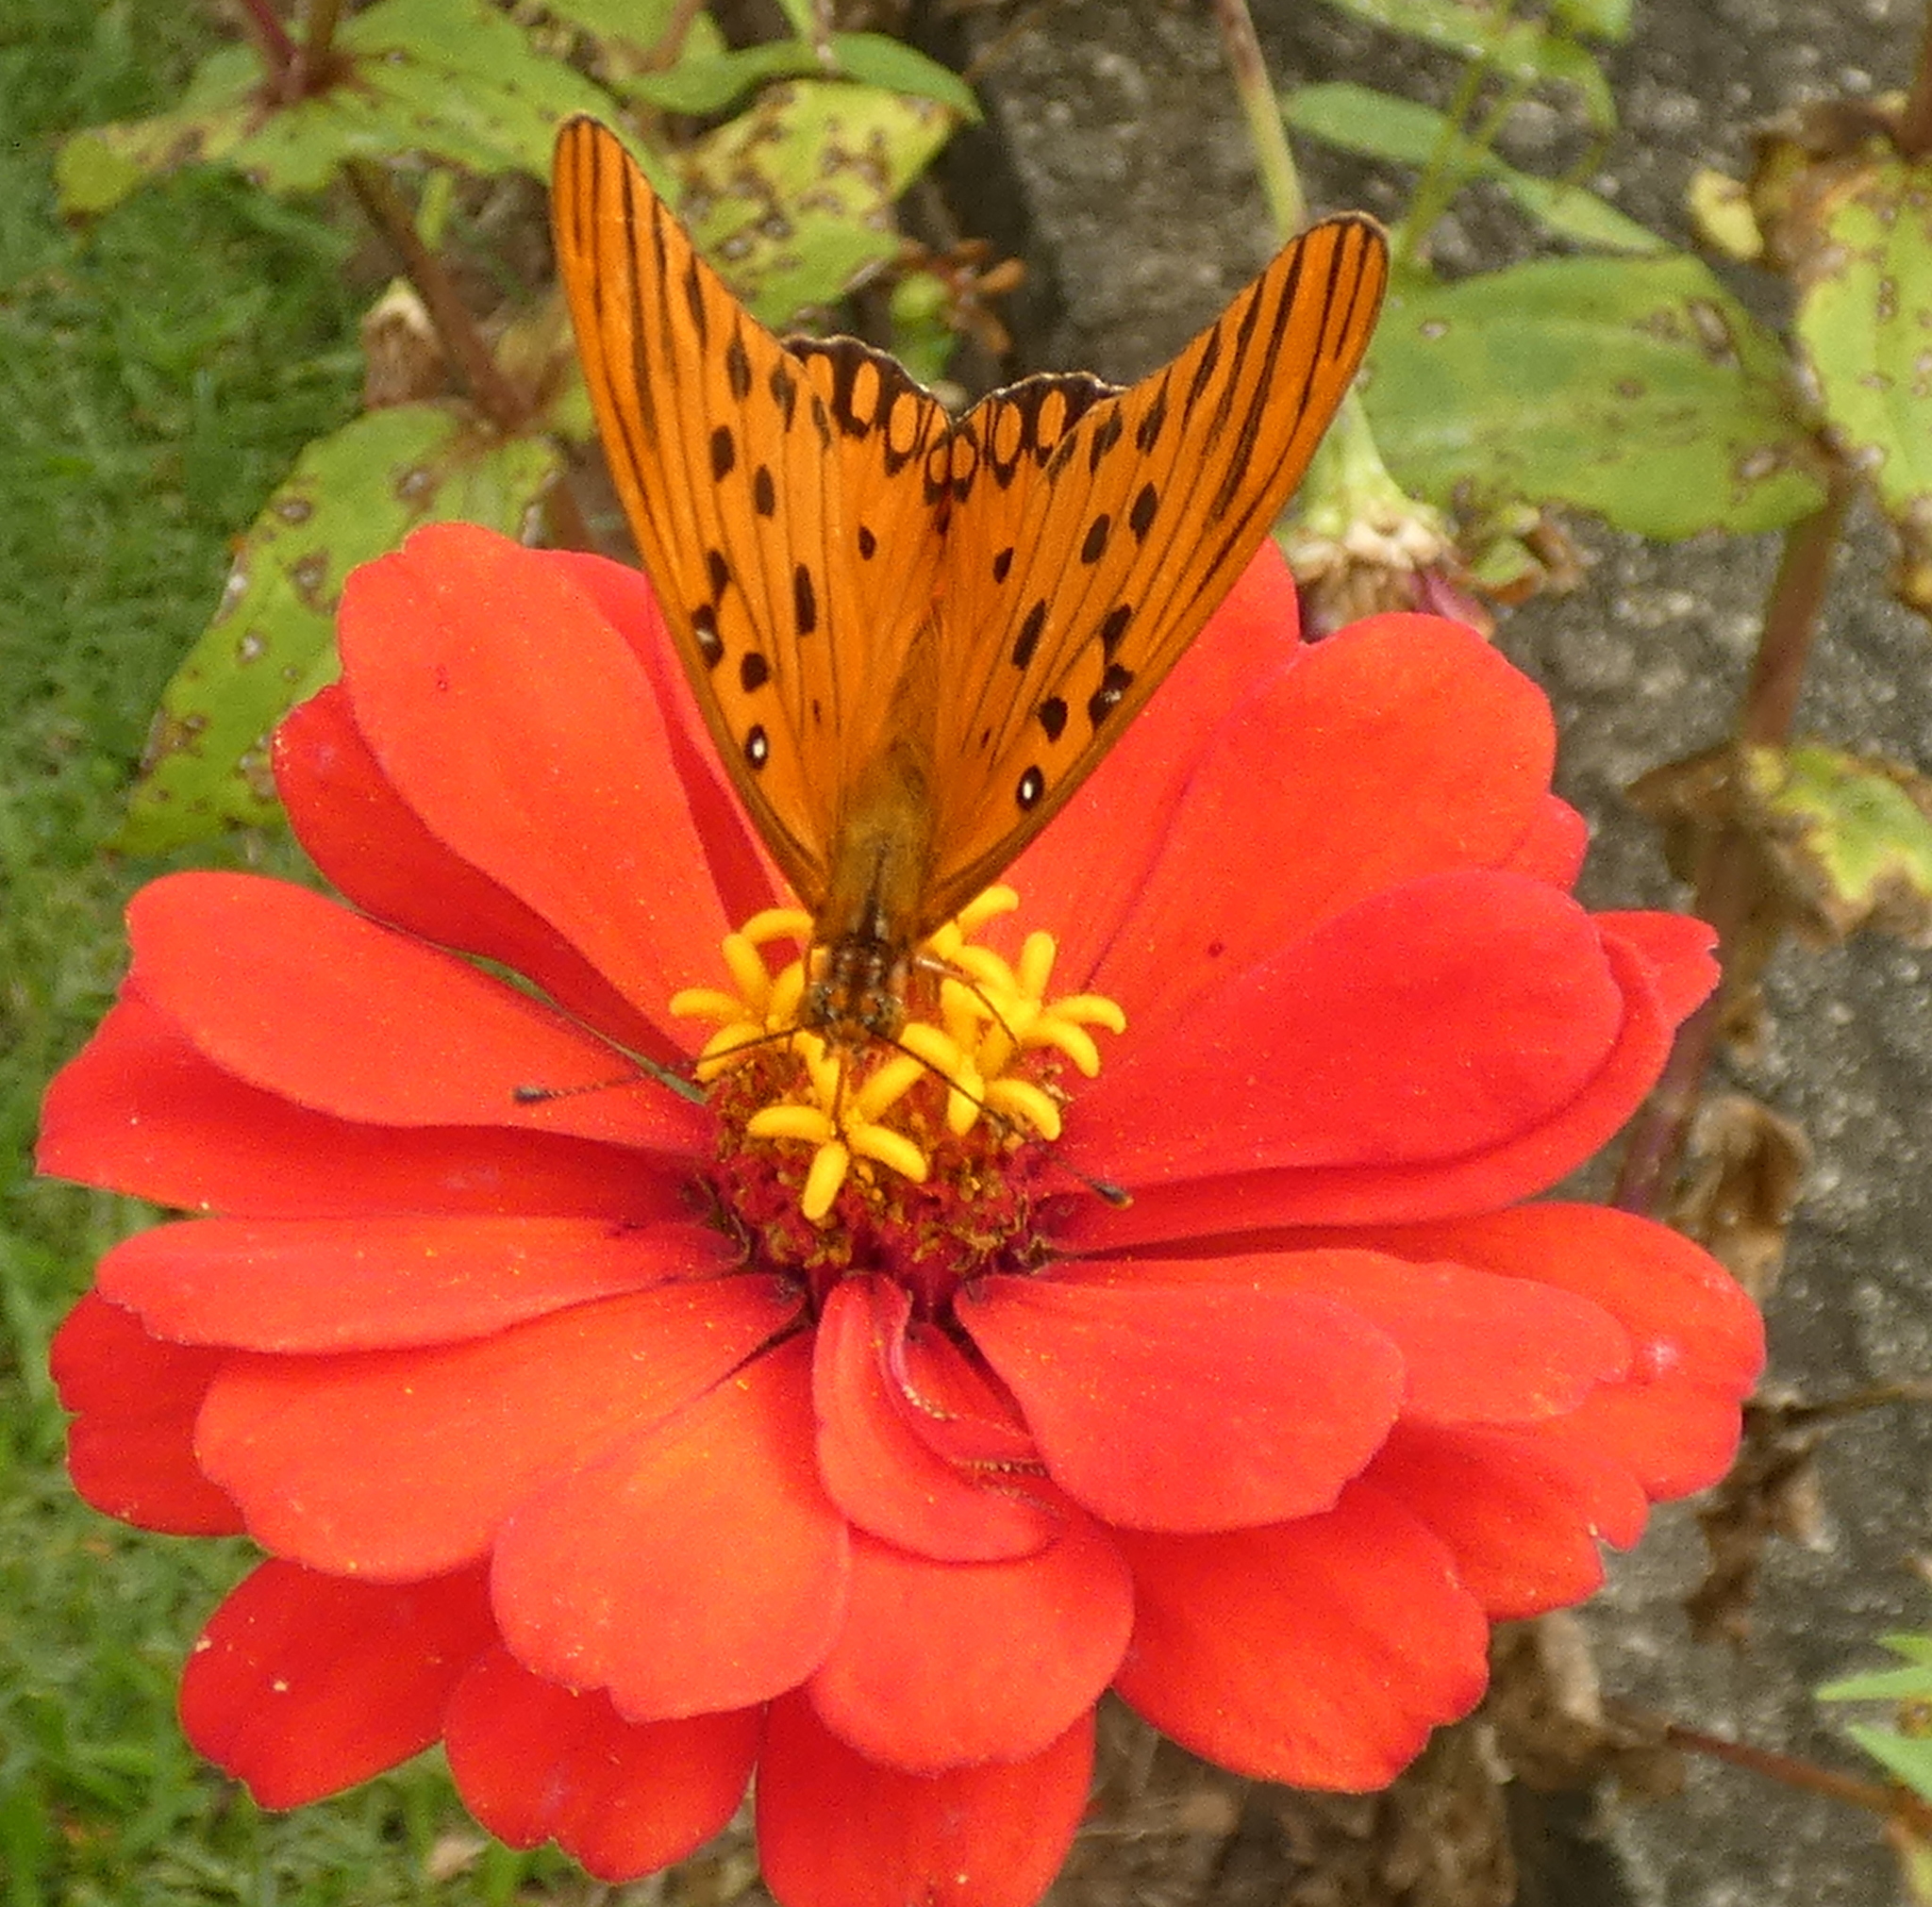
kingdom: Animalia
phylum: Arthropoda
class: Insecta
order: Lepidoptera
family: Nymphalidae
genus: Dione
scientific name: Dione vanillae
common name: Gulf fritillary
